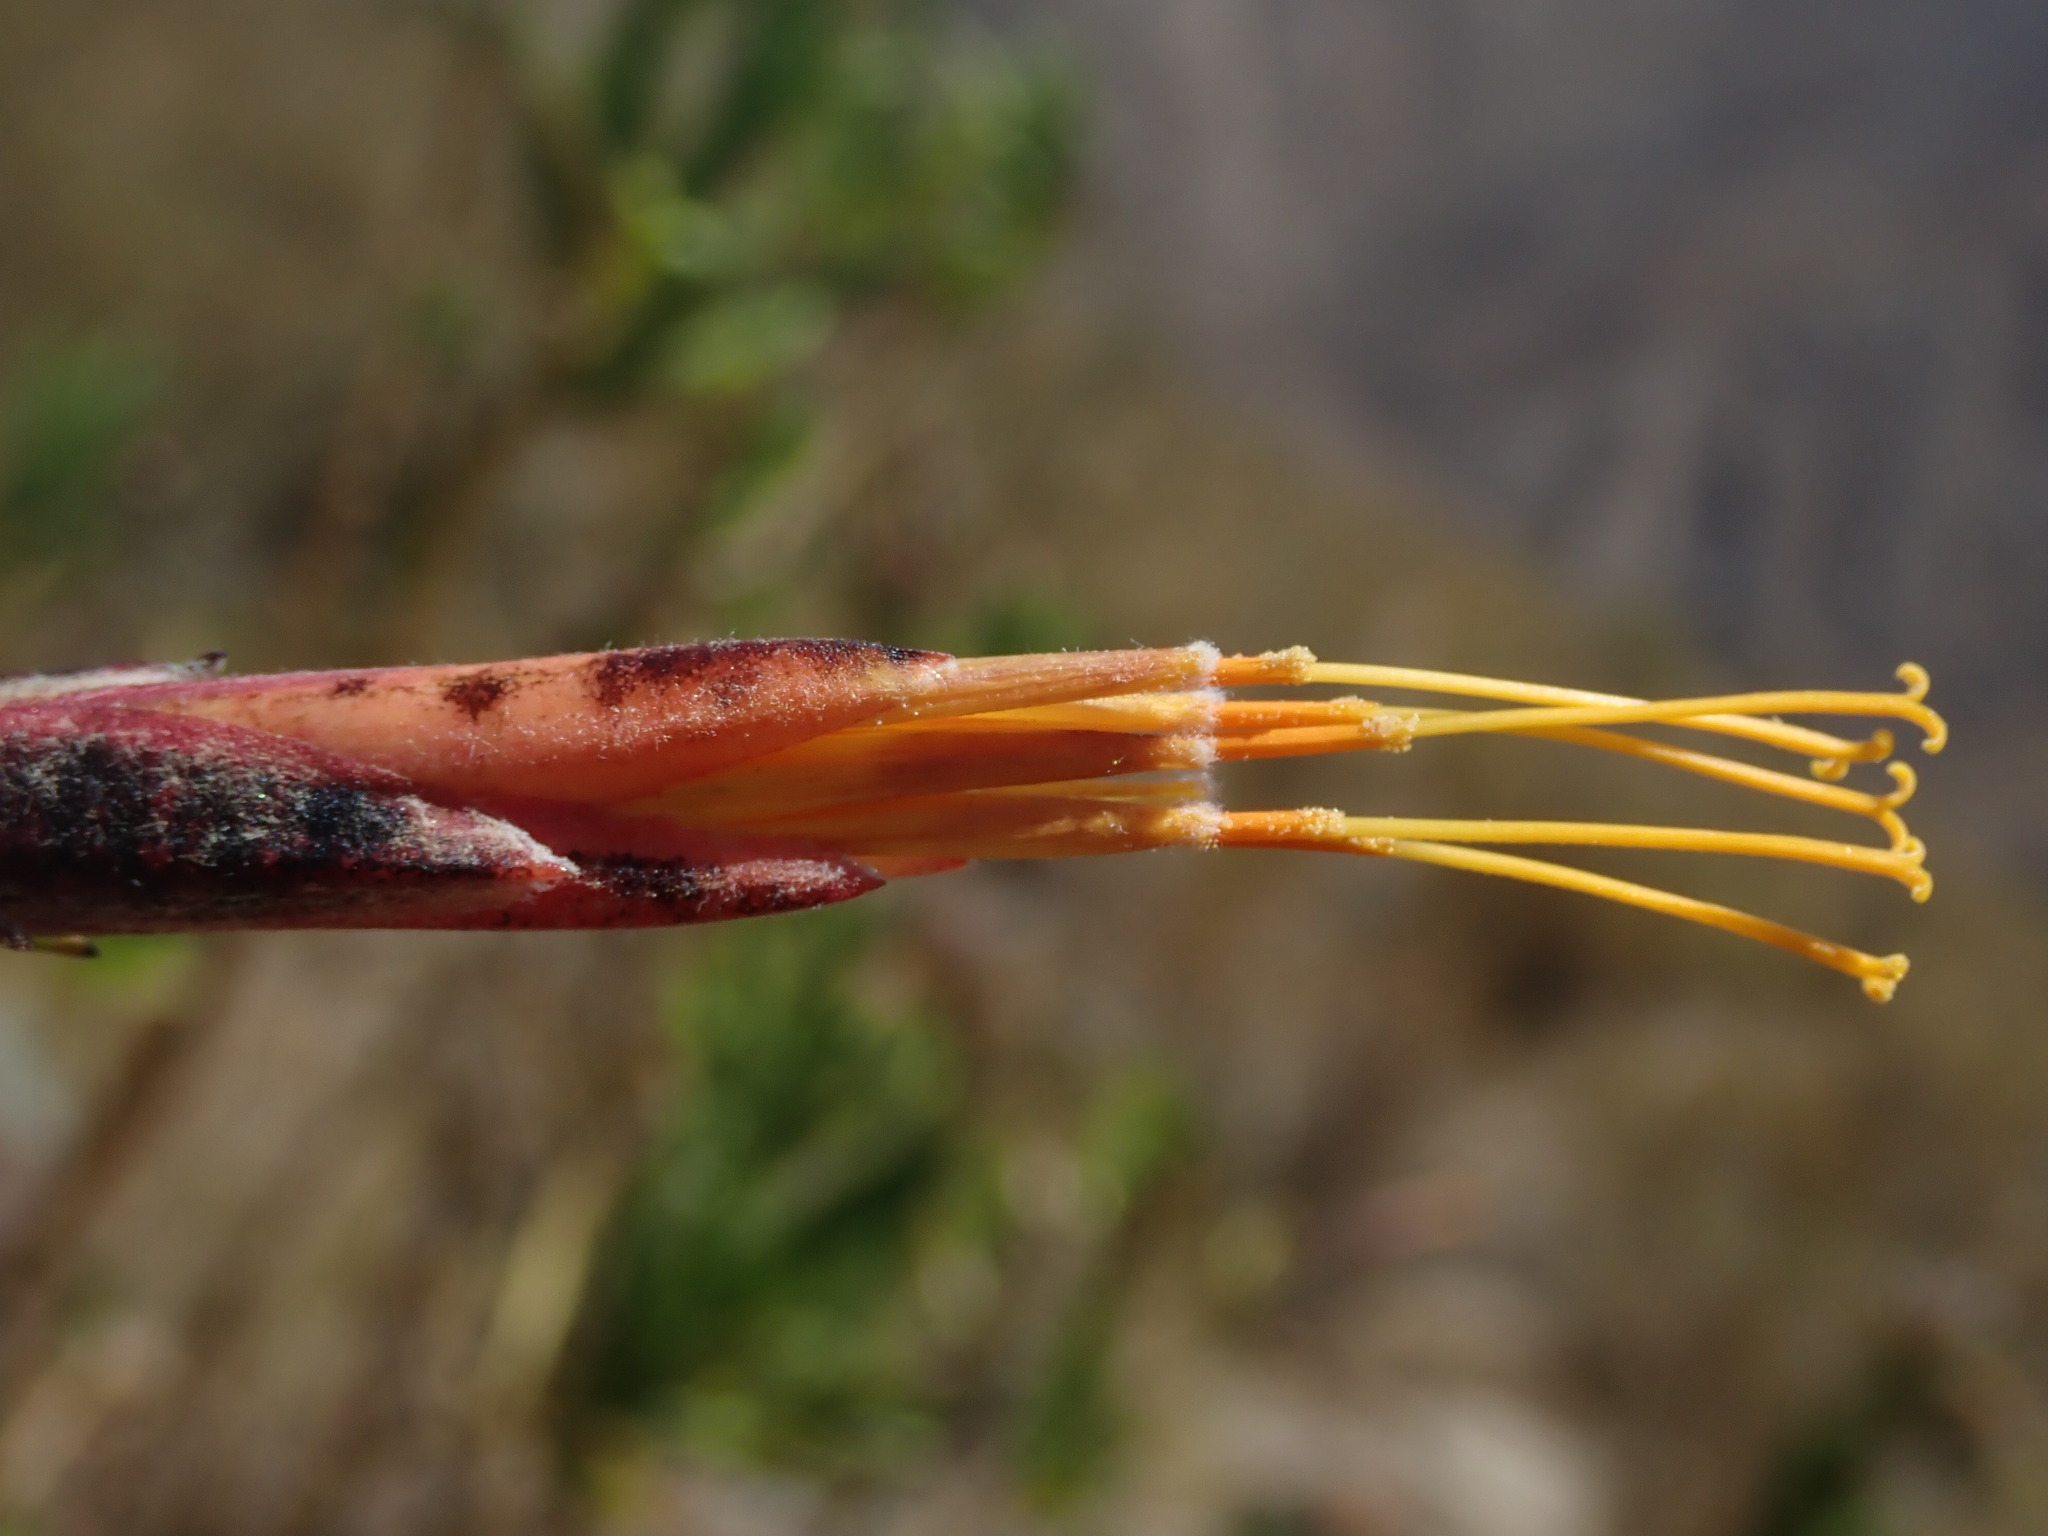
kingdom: Plantae
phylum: Tracheophyta
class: Magnoliopsida
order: Asterales
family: Asteraceae
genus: Mutisia
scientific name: Mutisia orbignyana
